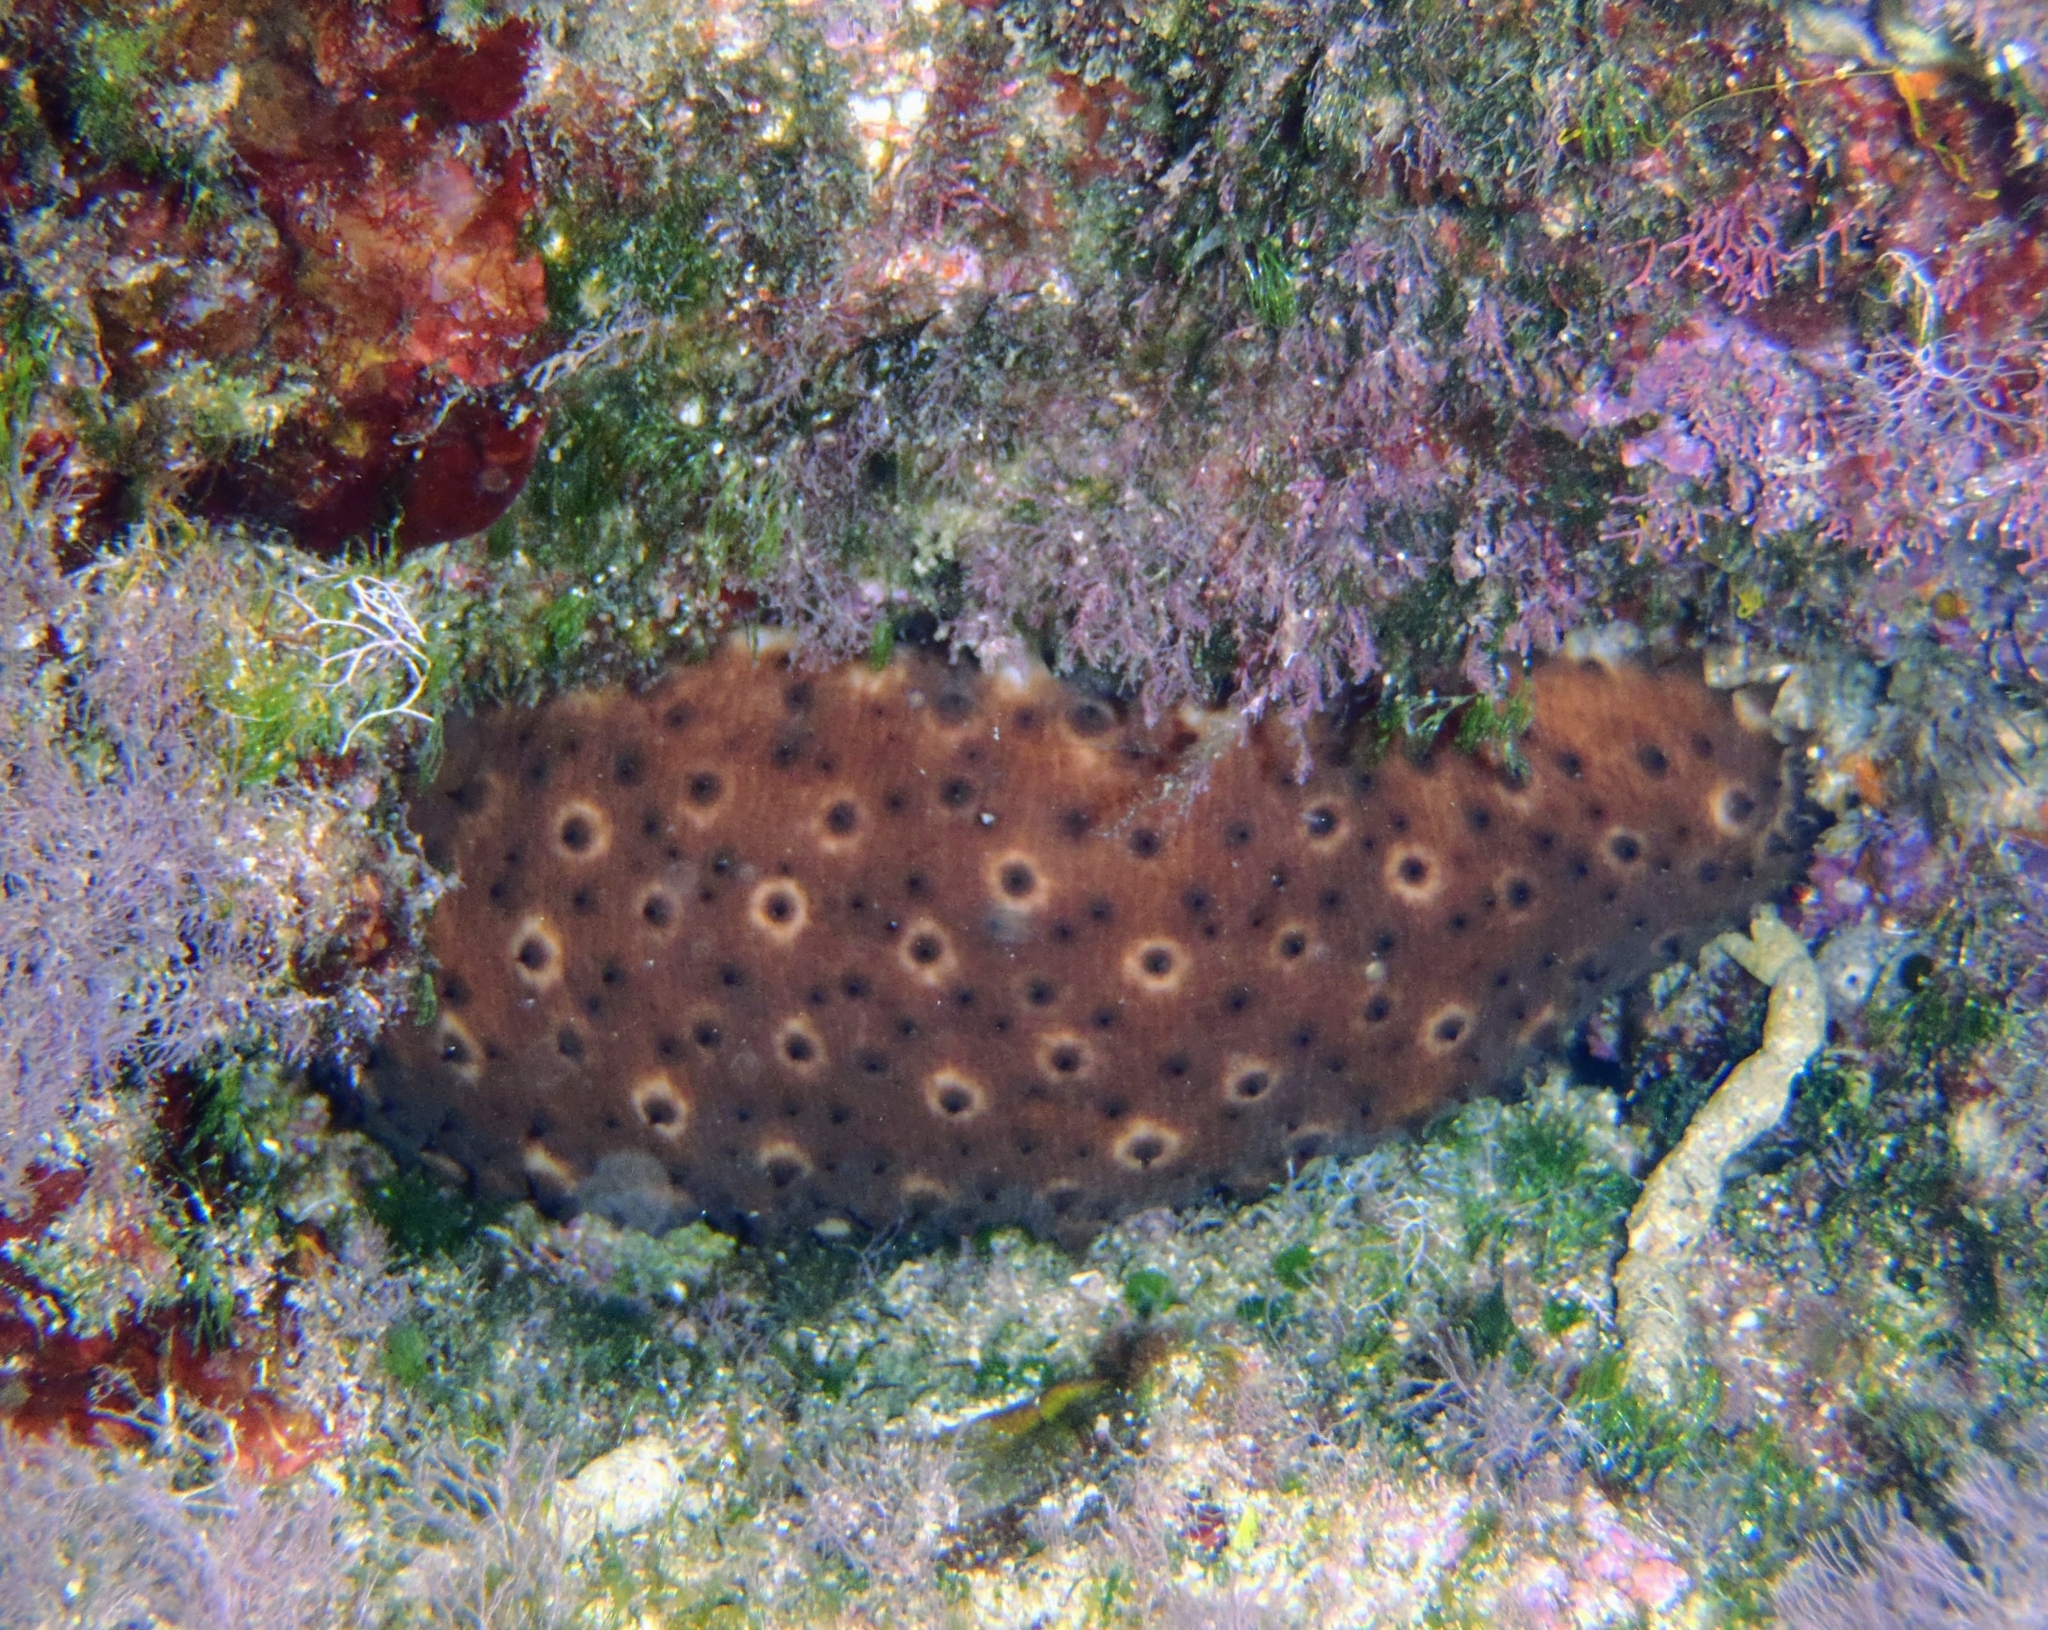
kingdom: Animalia
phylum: Echinodermata
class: Holothuroidea
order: Holothuriida
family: Holothuriidae
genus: Holothuria
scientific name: Holothuria sanctori
